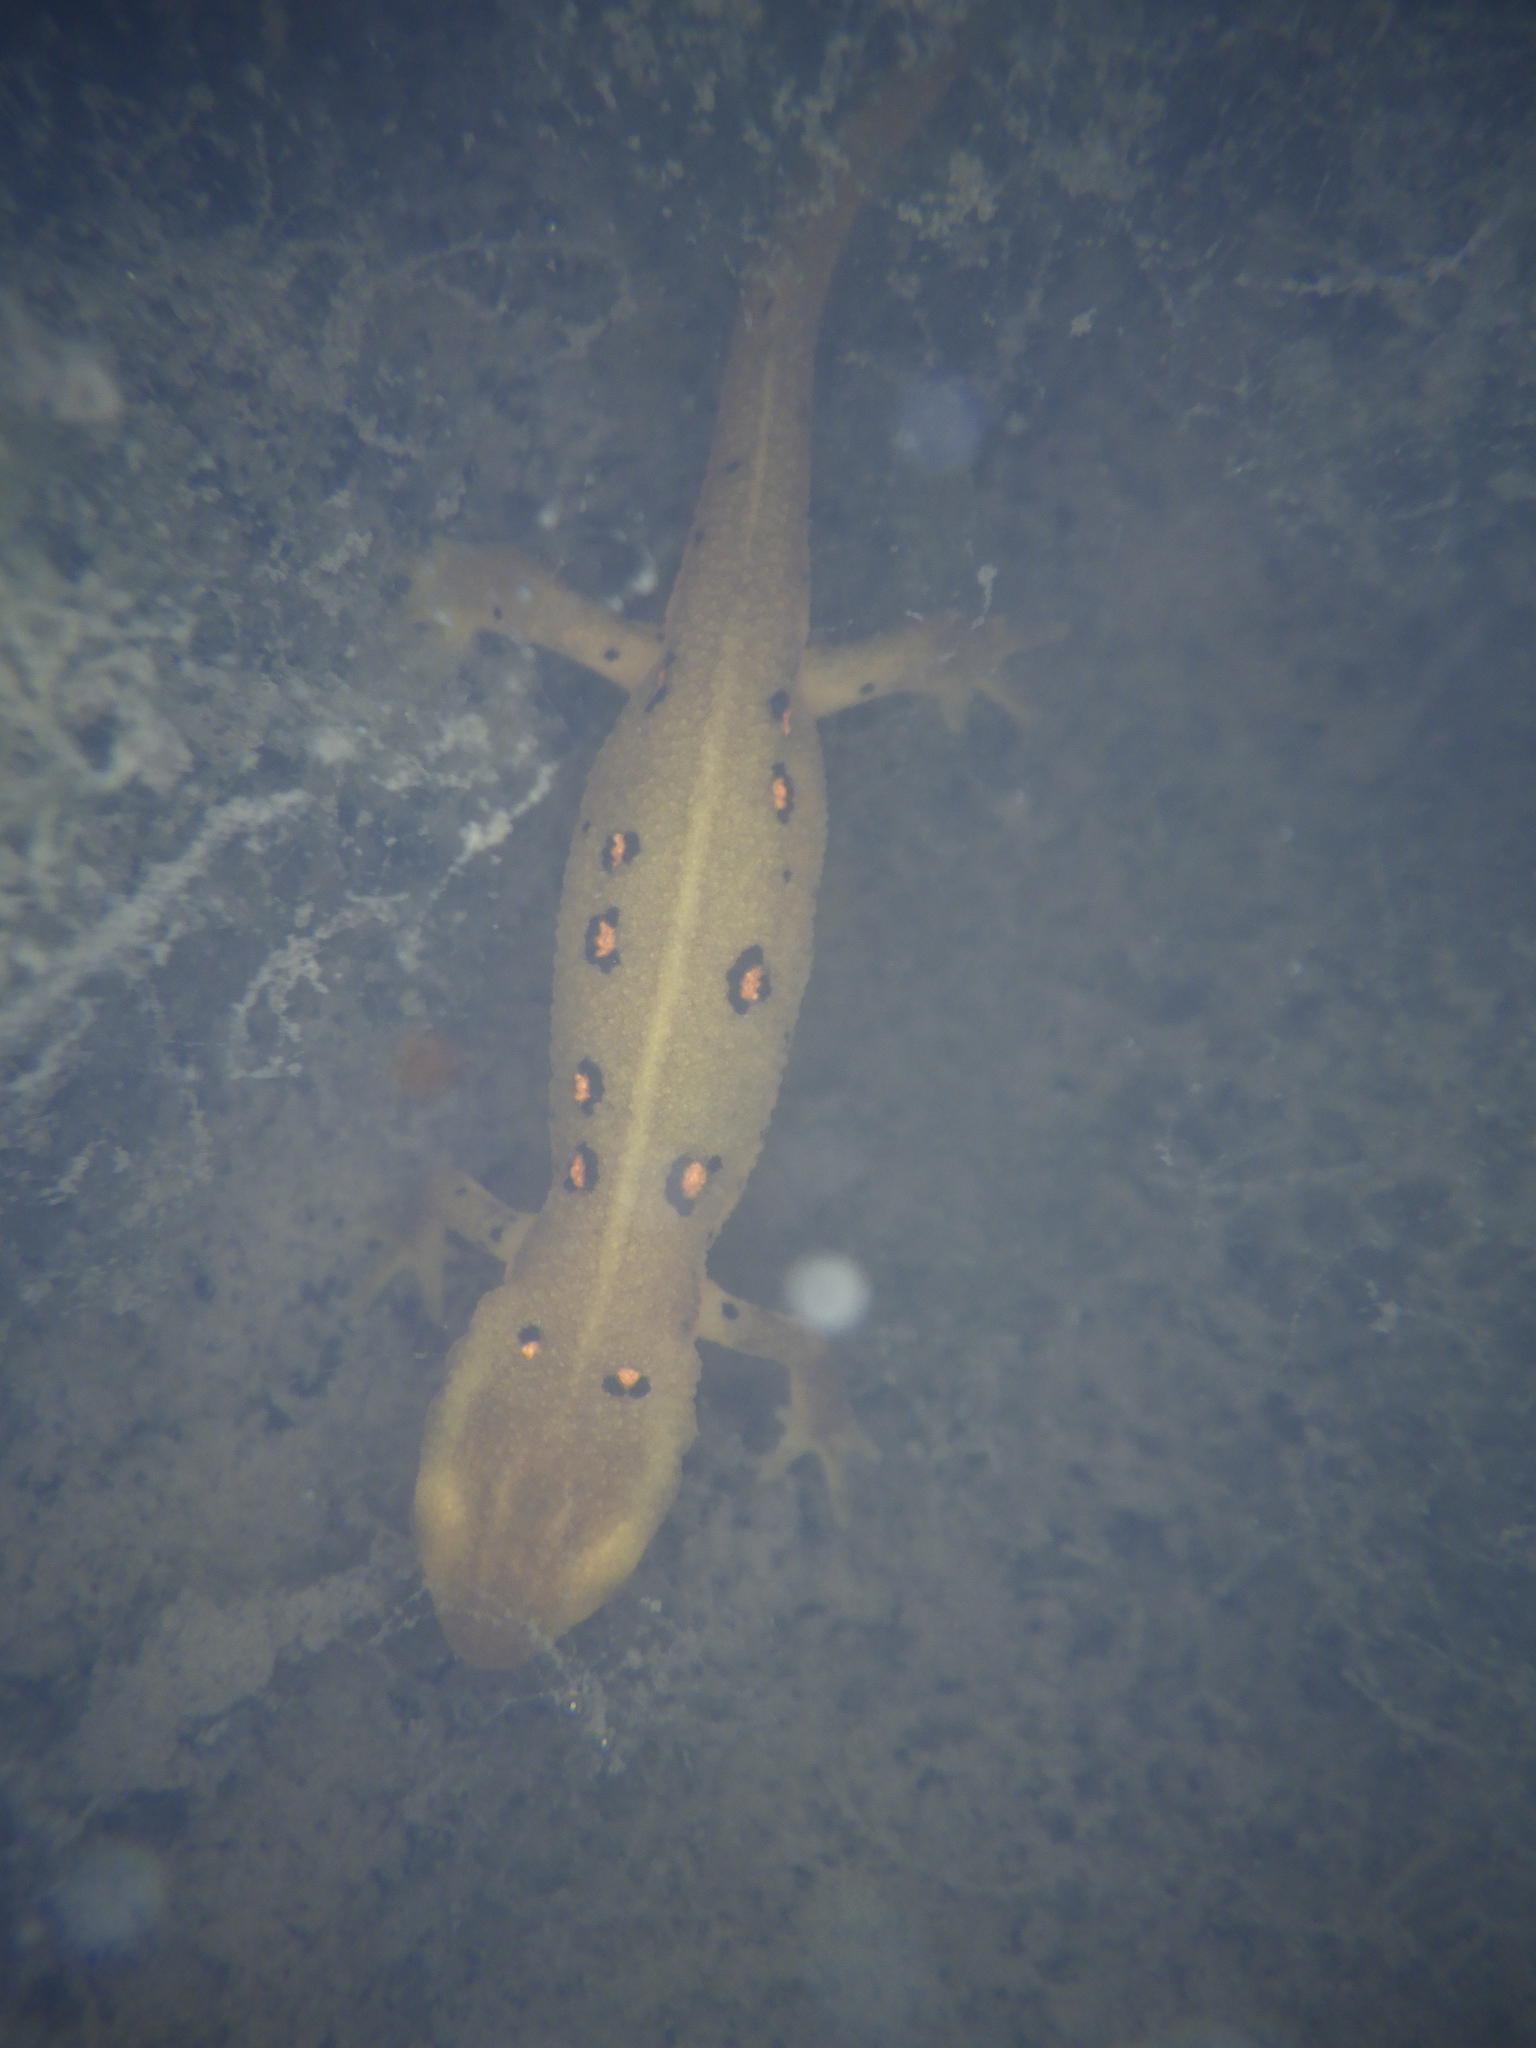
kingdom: Animalia
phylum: Chordata
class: Amphibia
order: Caudata
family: Salamandridae
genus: Notophthalmus
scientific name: Notophthalmus viridescens
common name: Eastern newt
